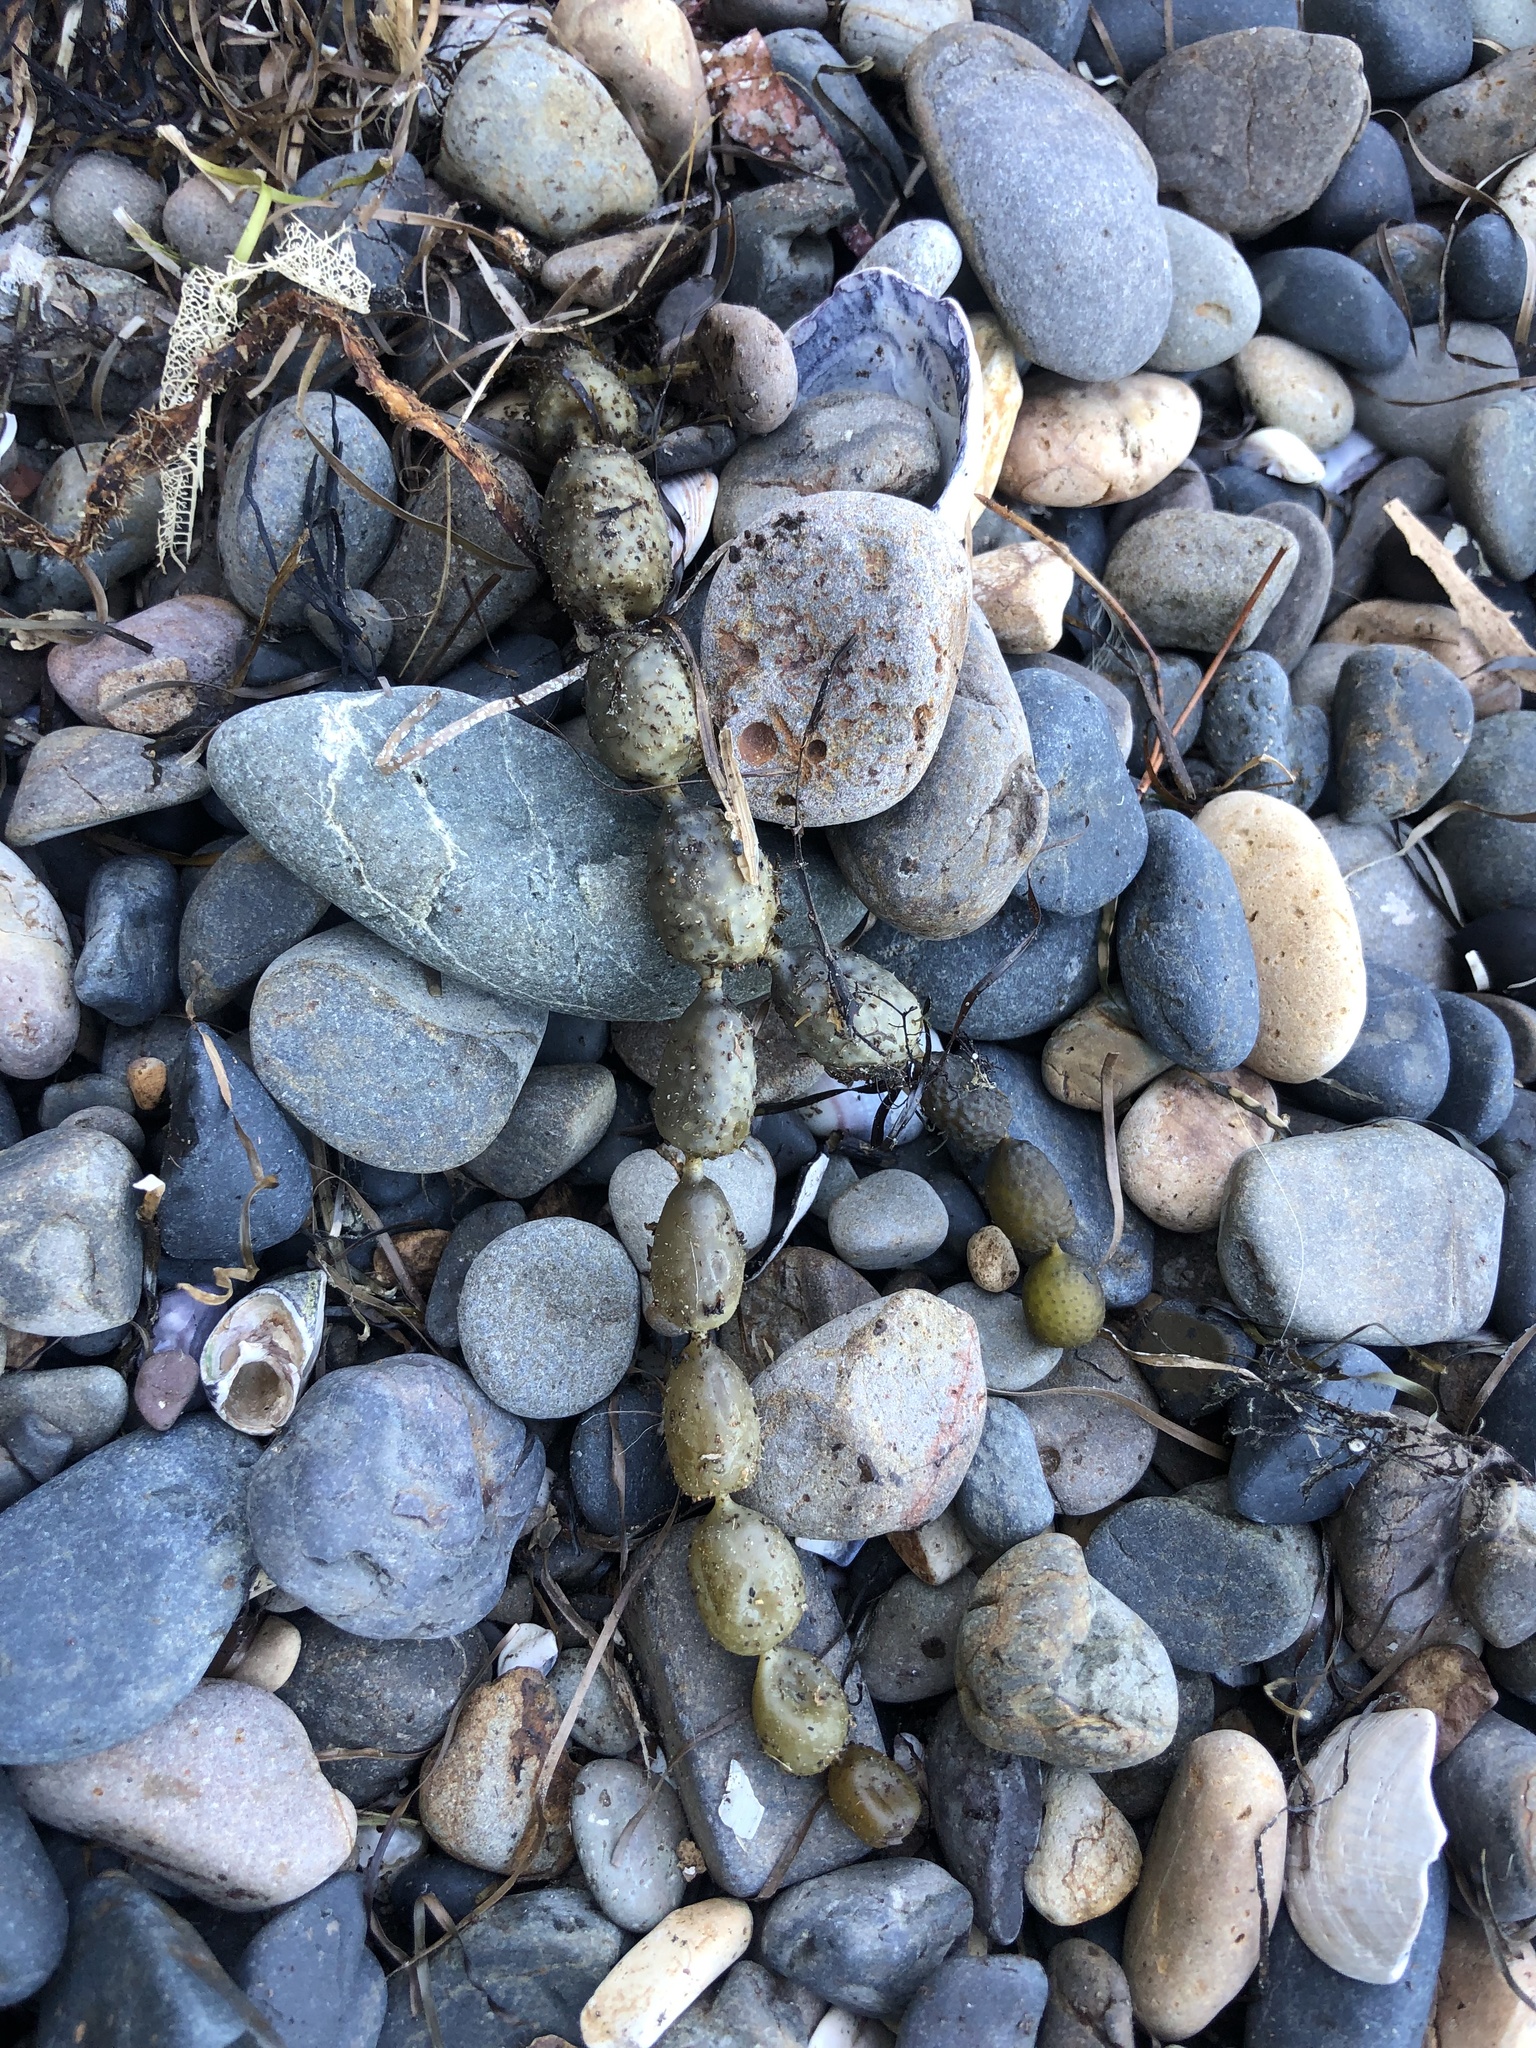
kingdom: Chromista
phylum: Ochrophyta
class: Phaeophyceae
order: Fucales
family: Hormosiraceae
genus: Hormosira
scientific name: Hormosira banksii
